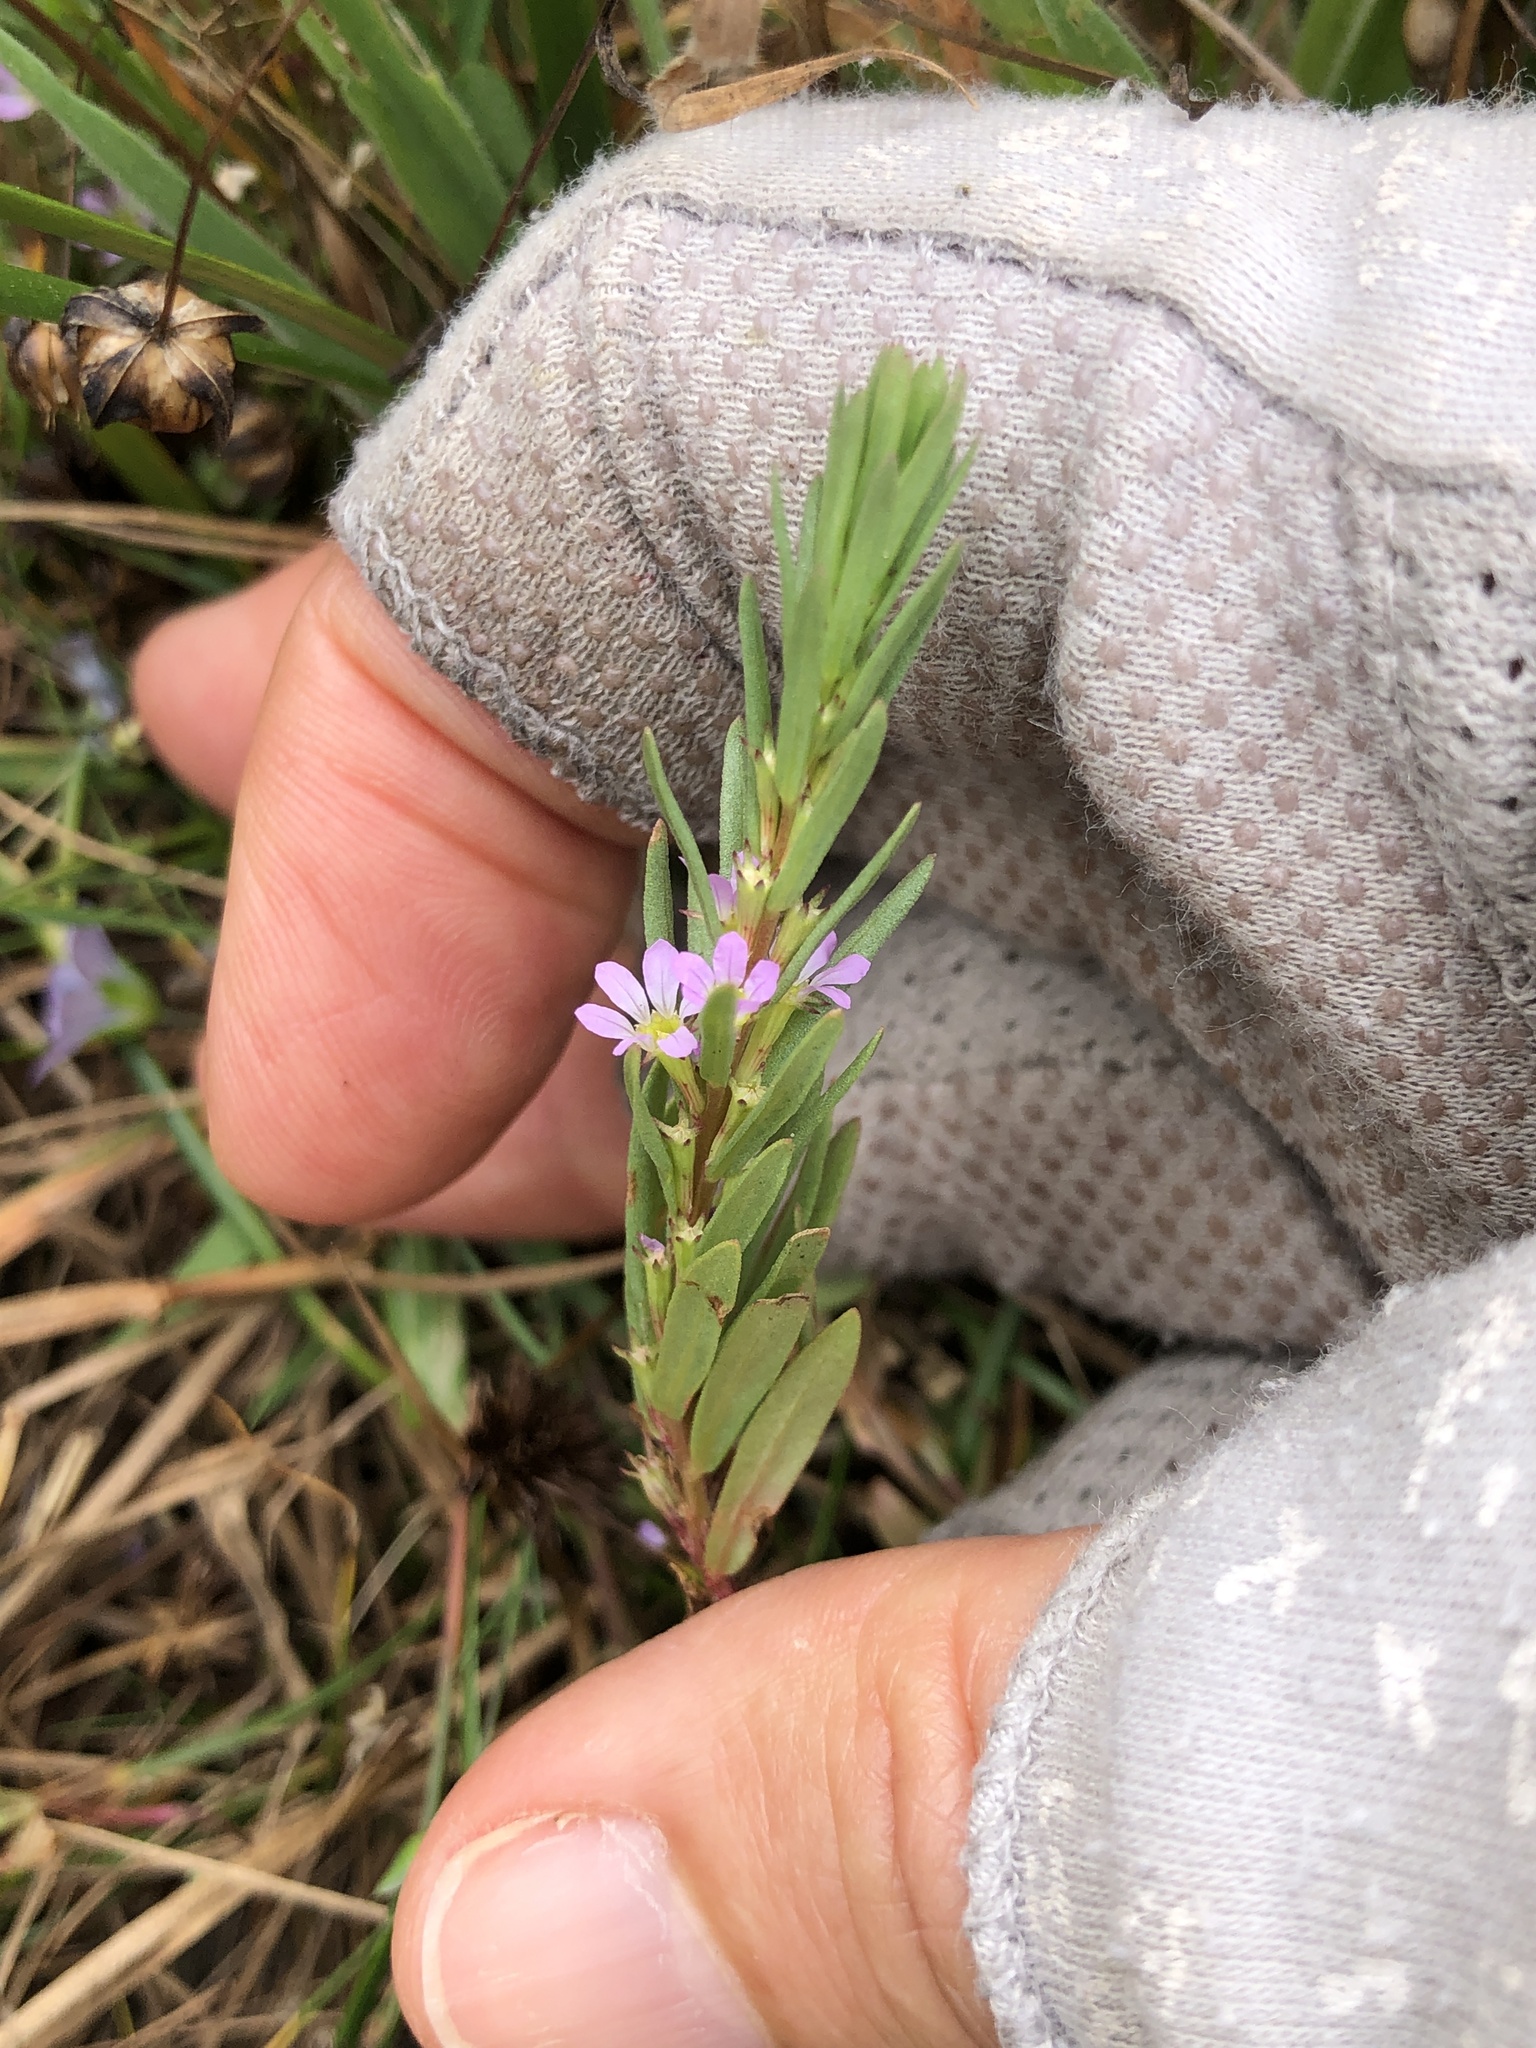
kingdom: Plantae
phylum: Tracheophyta
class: Magnoliopsida
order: Myrtales
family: Lythraceae
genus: Lythrum
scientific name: Lythrum hyssopifolia
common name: Grass-poly
